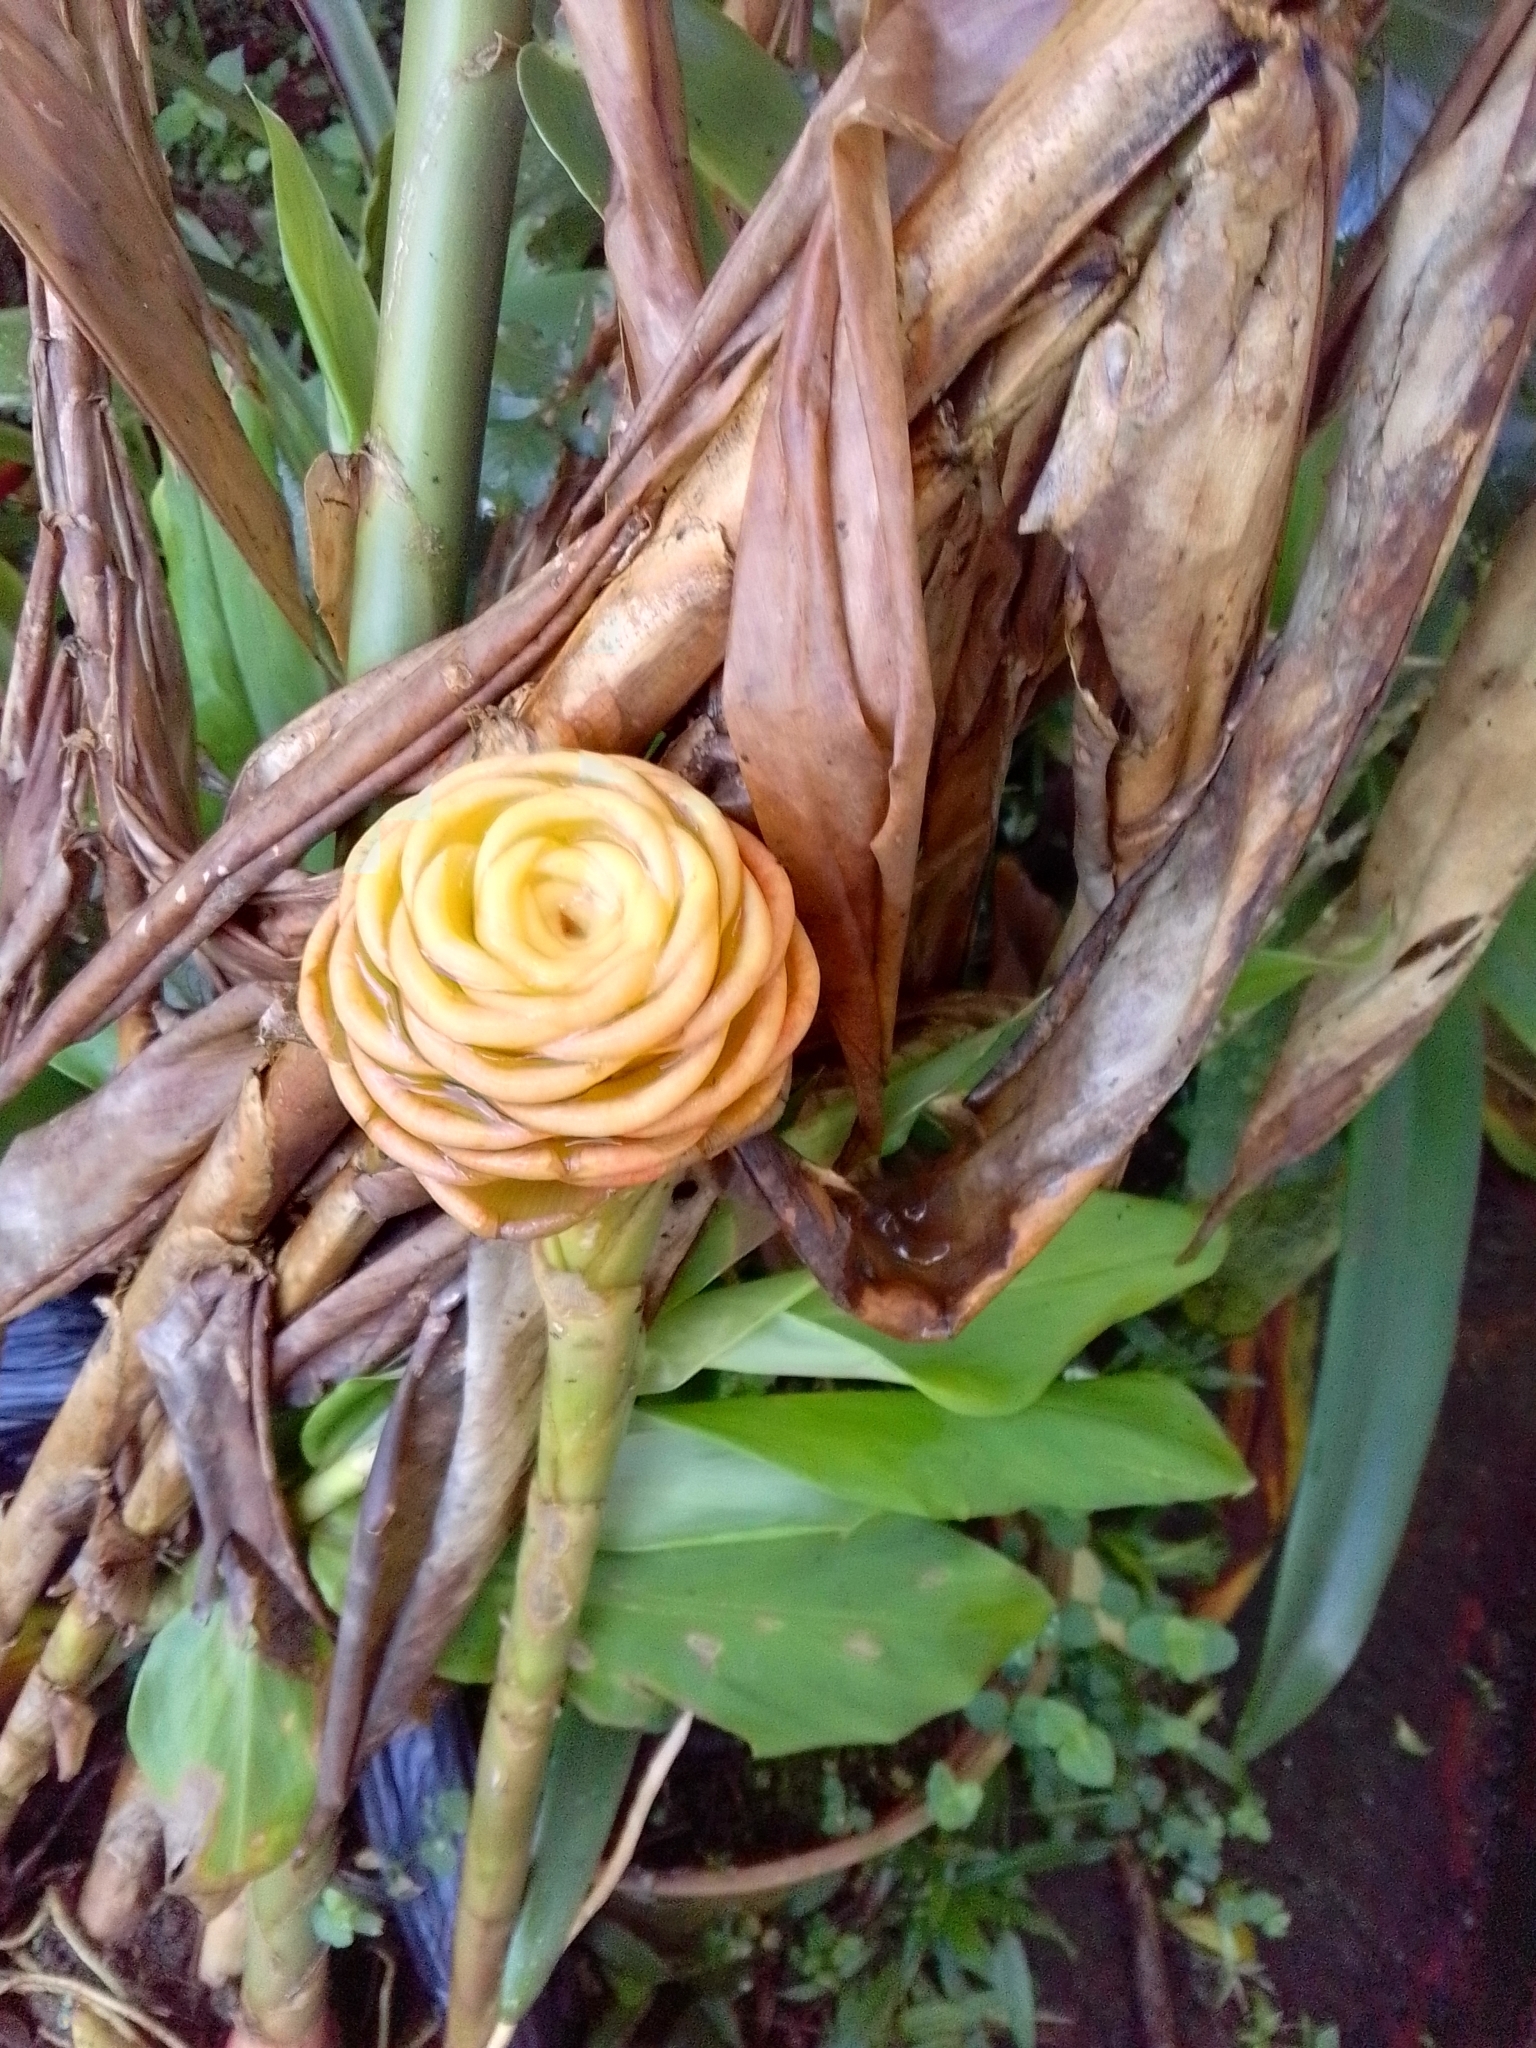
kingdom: Plantae
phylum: Tracheophyta
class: Liliopsida
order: Zingiberales
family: Zingiberaceae
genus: Zingiber
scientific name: Zingiber spectabile
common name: Beehive ginger
